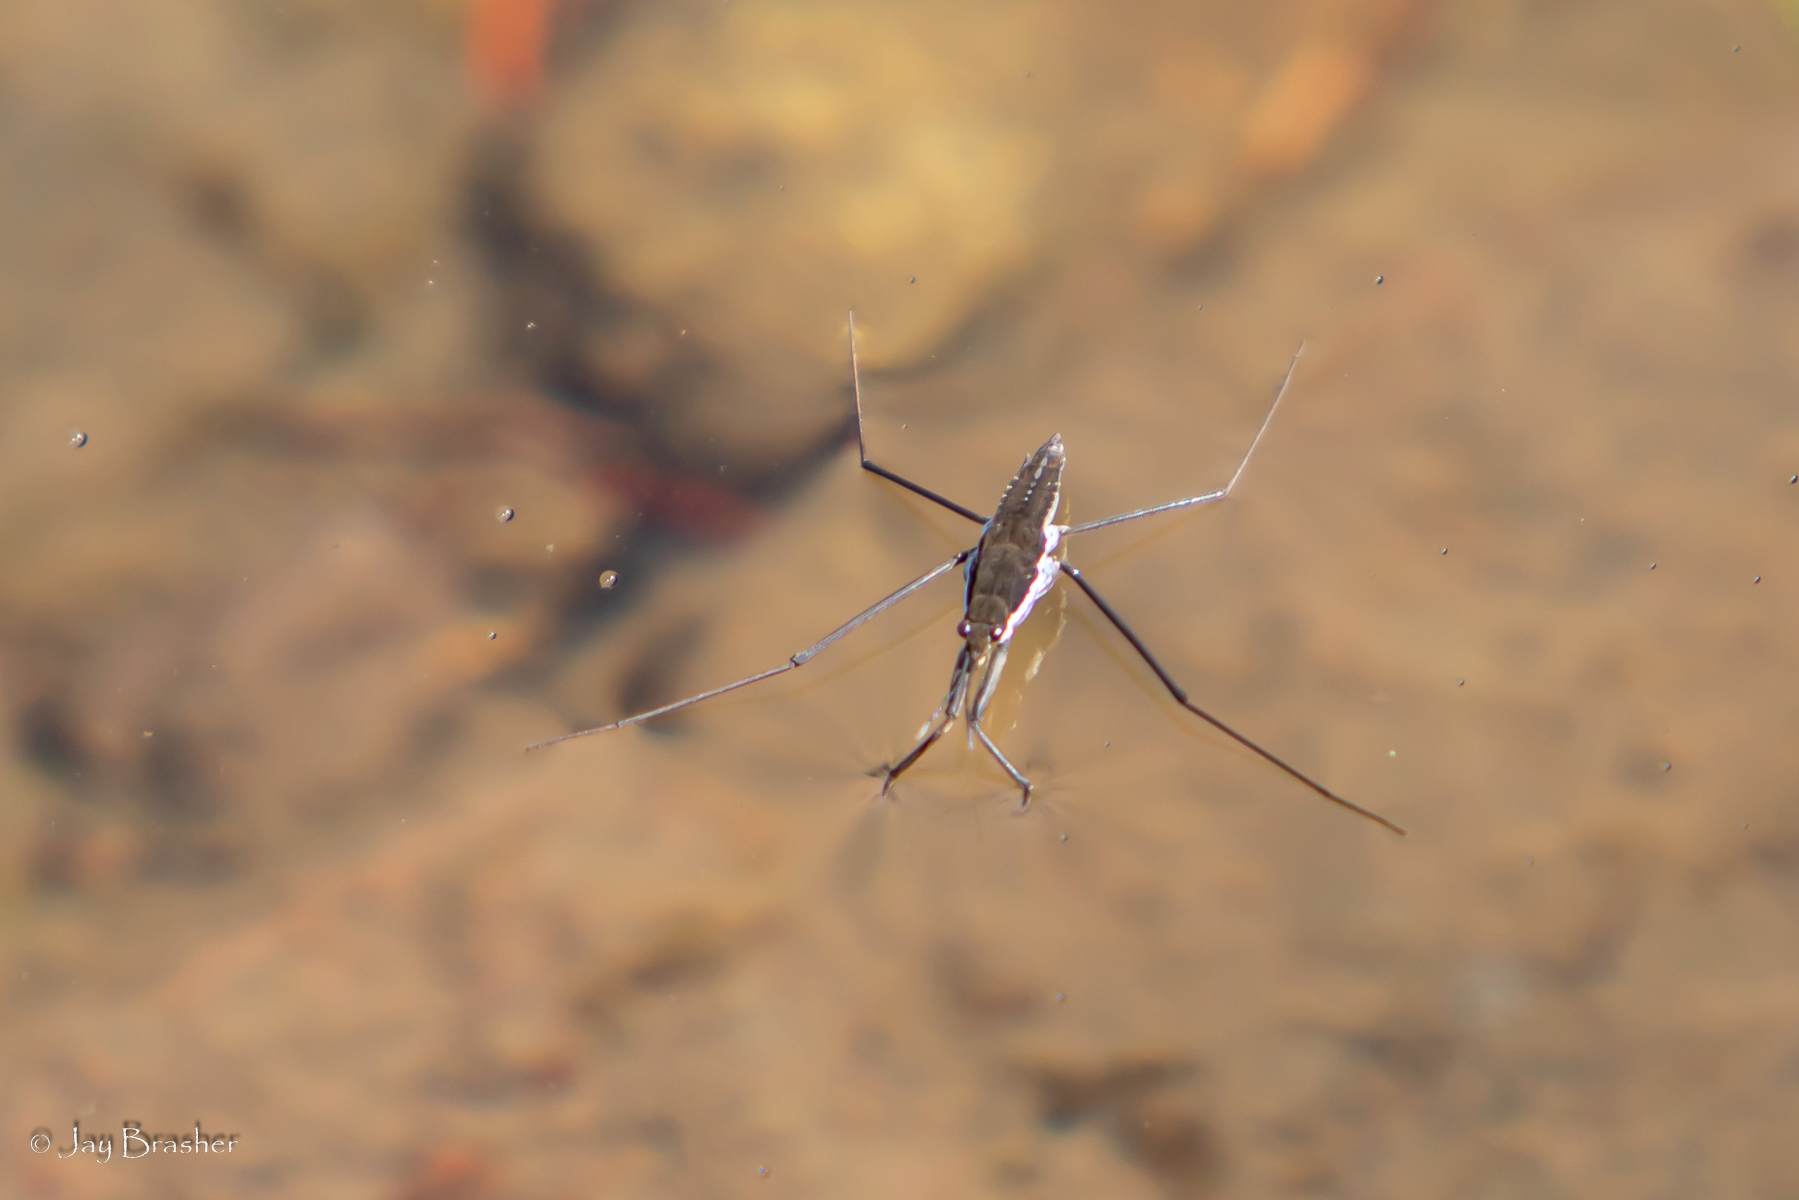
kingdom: Animalia
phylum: Arthropoda
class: Insecta
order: Hemiptera
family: Gerridae
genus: Aquarius
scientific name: Aquarius remigis
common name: Common water strider
